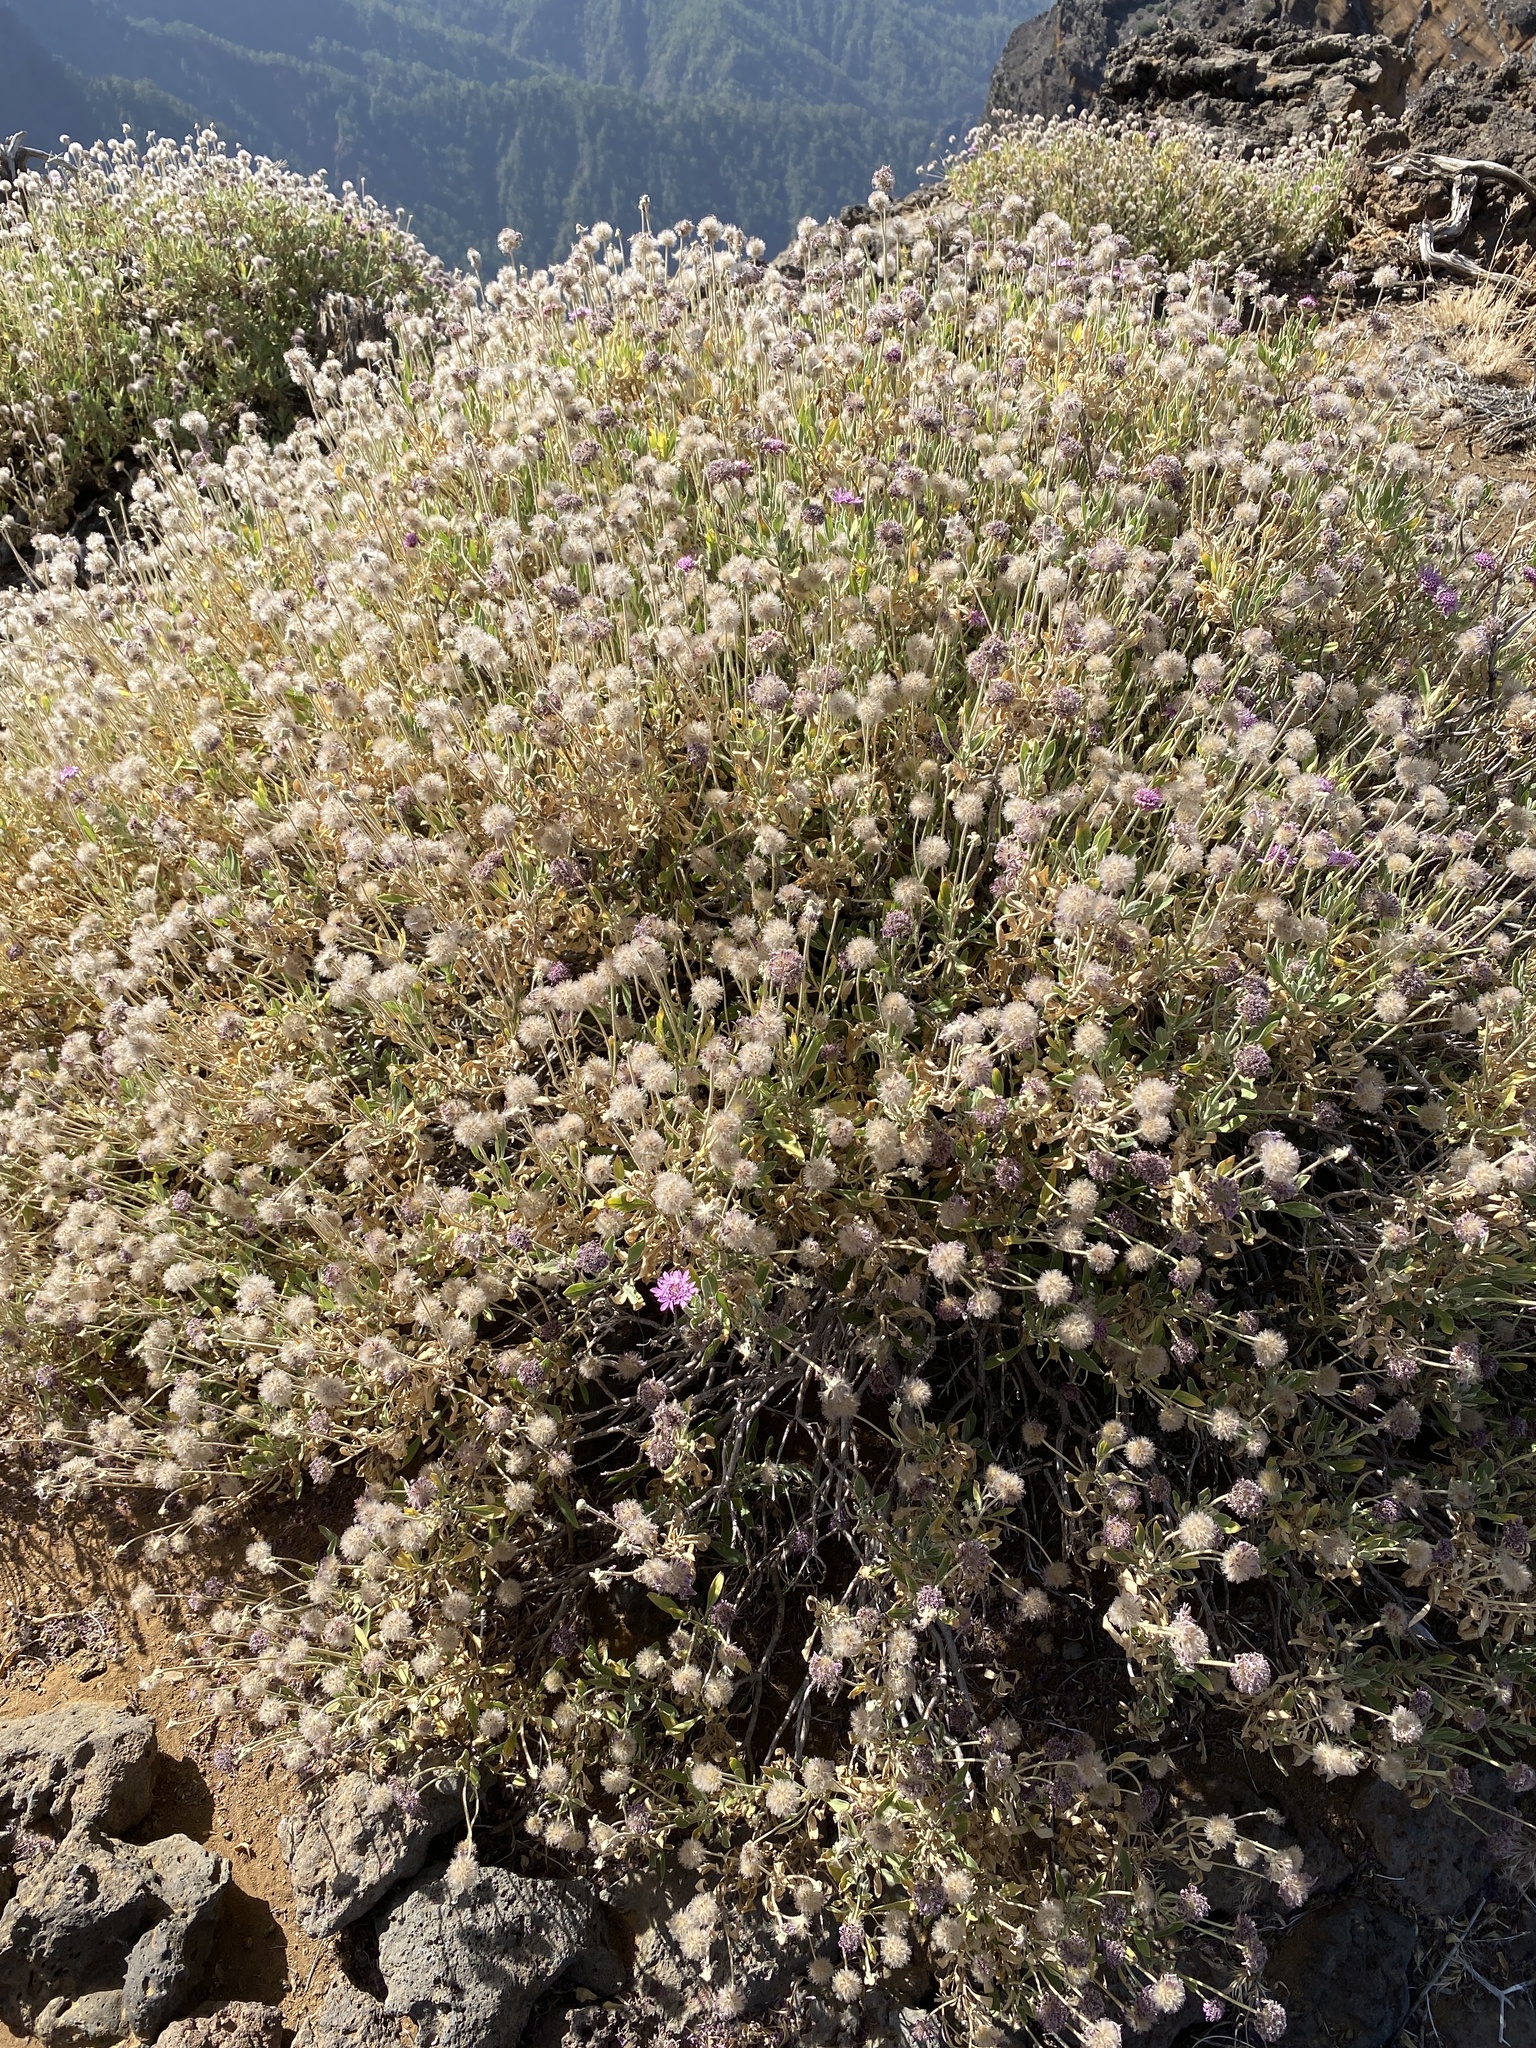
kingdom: Plantae
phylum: Tracheophyta
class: Magnoliopsida
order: Dipsacales
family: Caprifoliaceae
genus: Pterocephalus
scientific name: Pterocephalus porphyranthus
